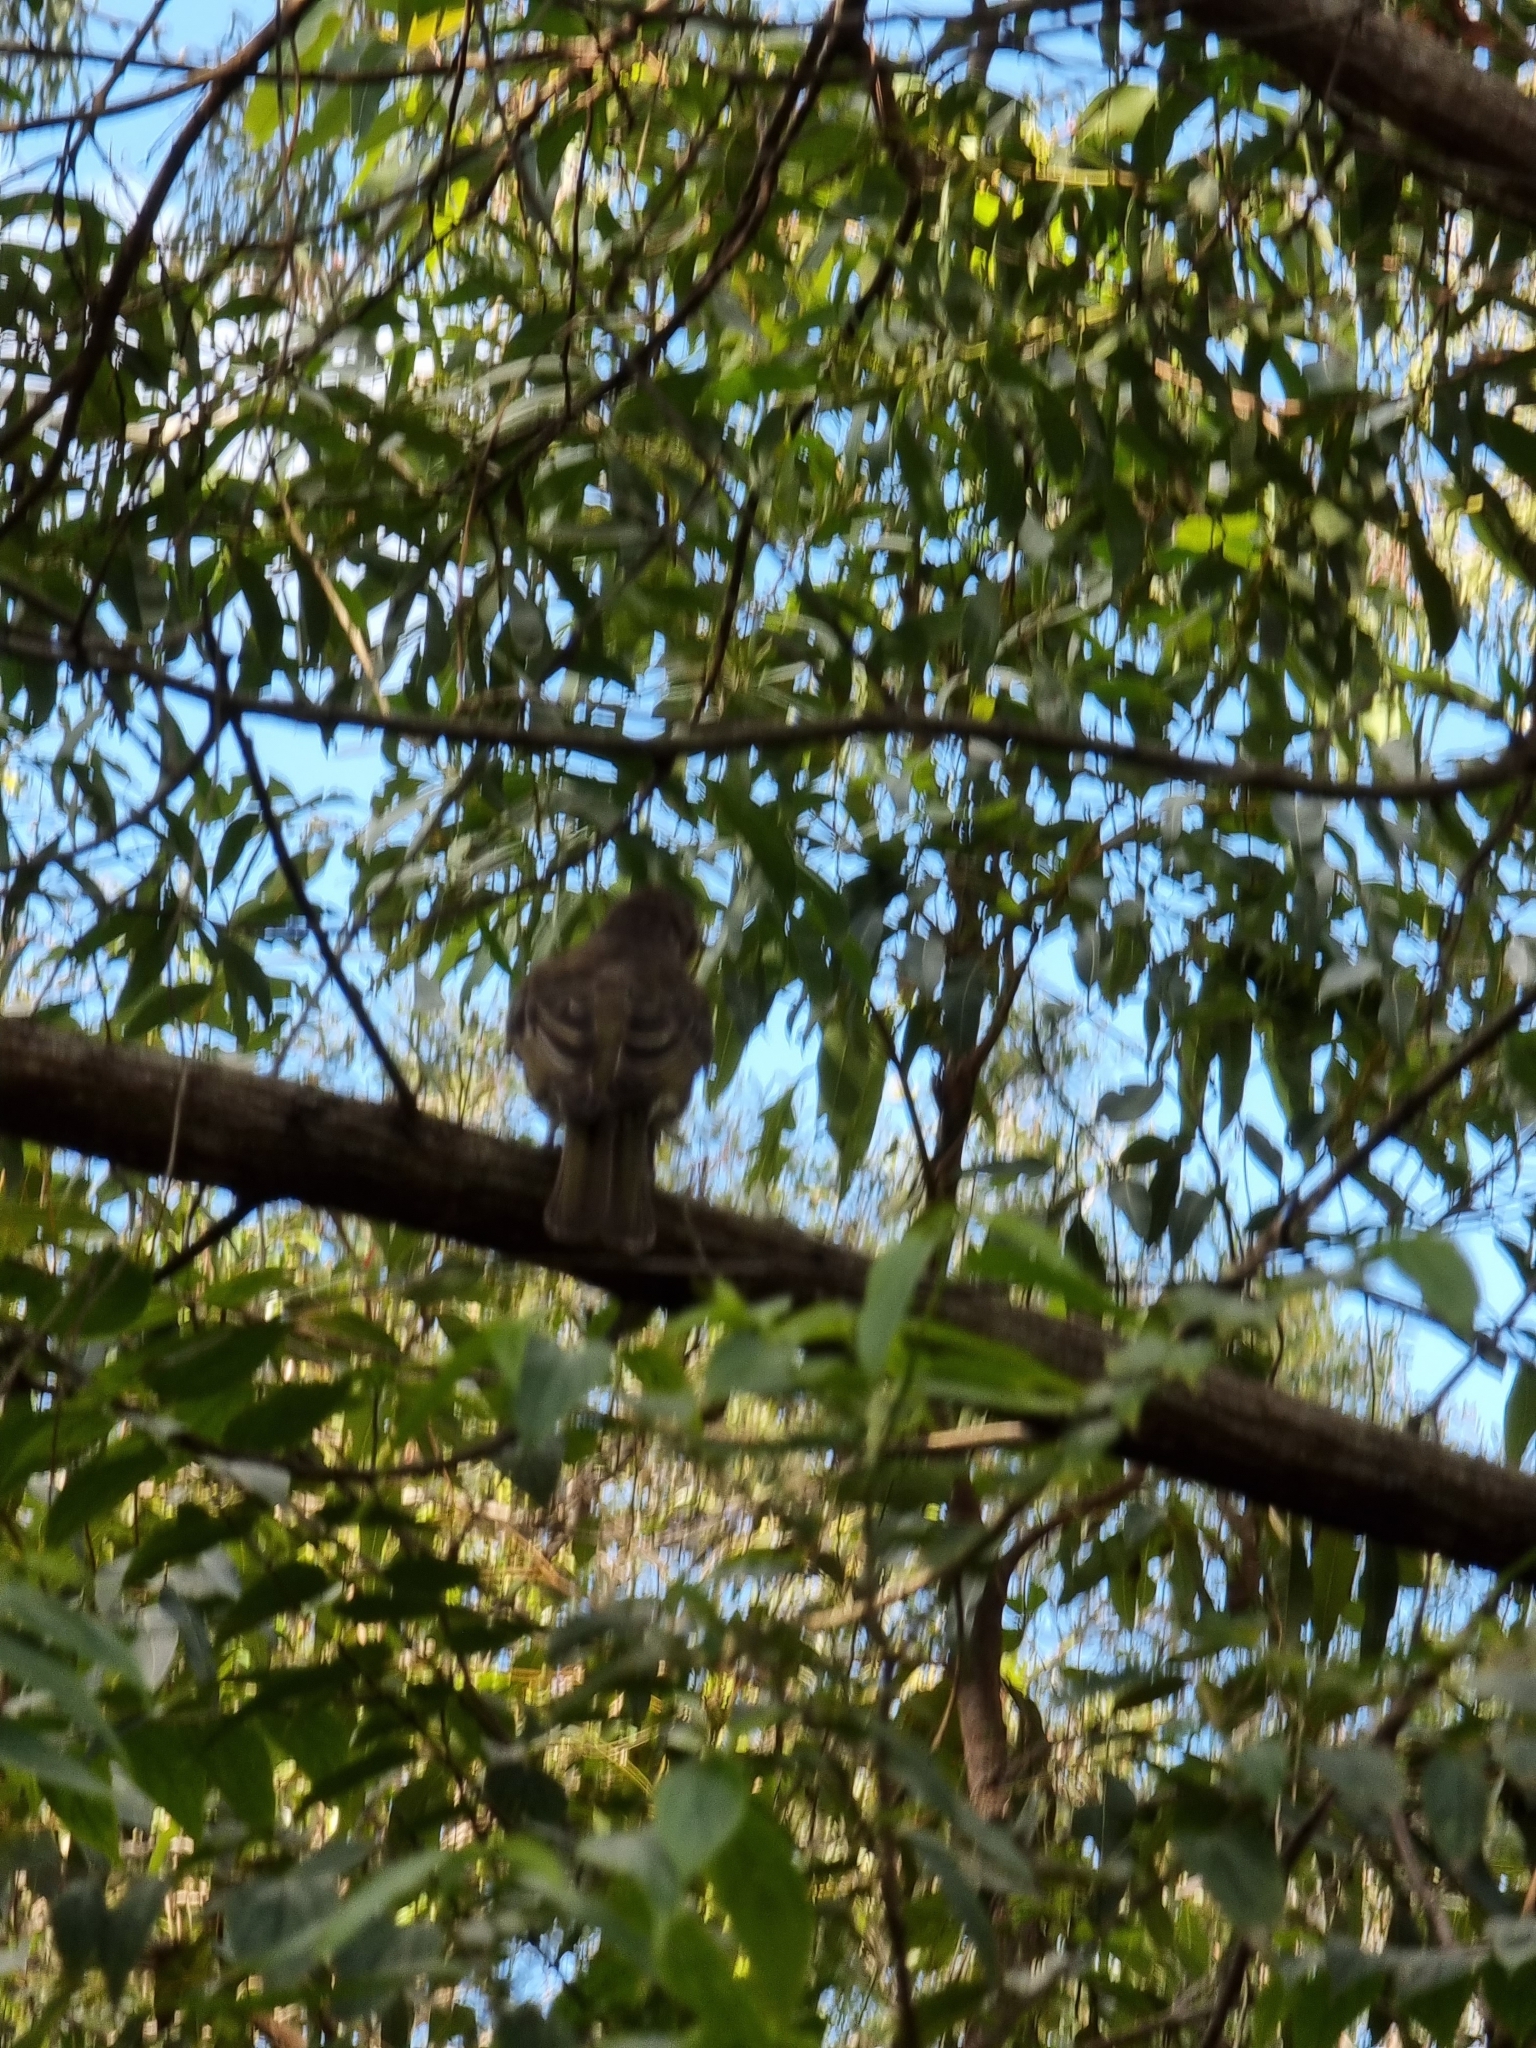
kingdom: Animalia
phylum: Chordata
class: Aves
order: Passeriformes
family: Oriolidae
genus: Oriolus
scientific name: Oriolus sagittatus
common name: Olive-backed oriole
